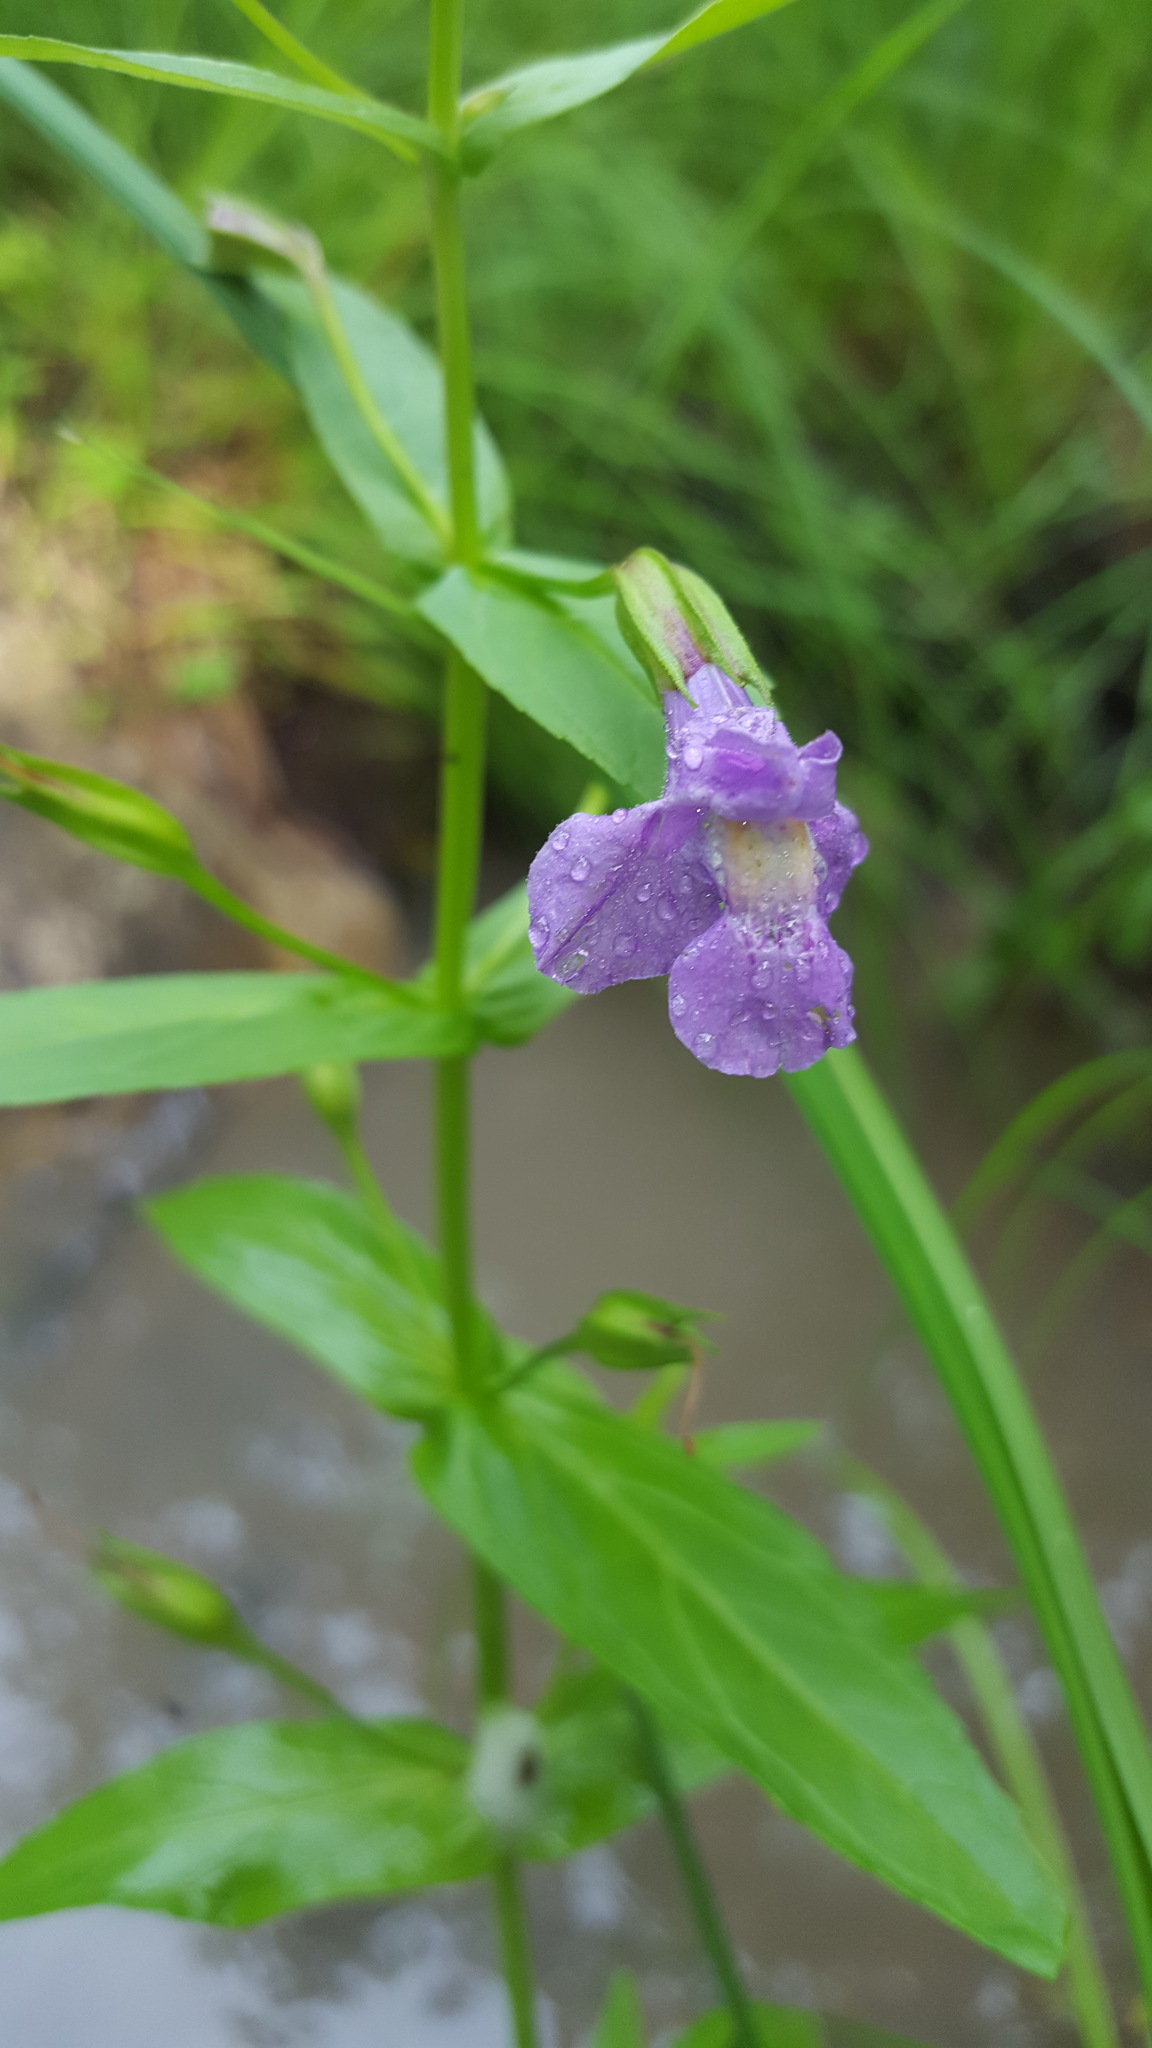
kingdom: Plantae
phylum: Tracheophyta
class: Magnoliopsida
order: Lamiales
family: Phrymaceae
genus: Mimulus
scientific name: Mimulus ringens
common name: Allegheny monkeyflower
